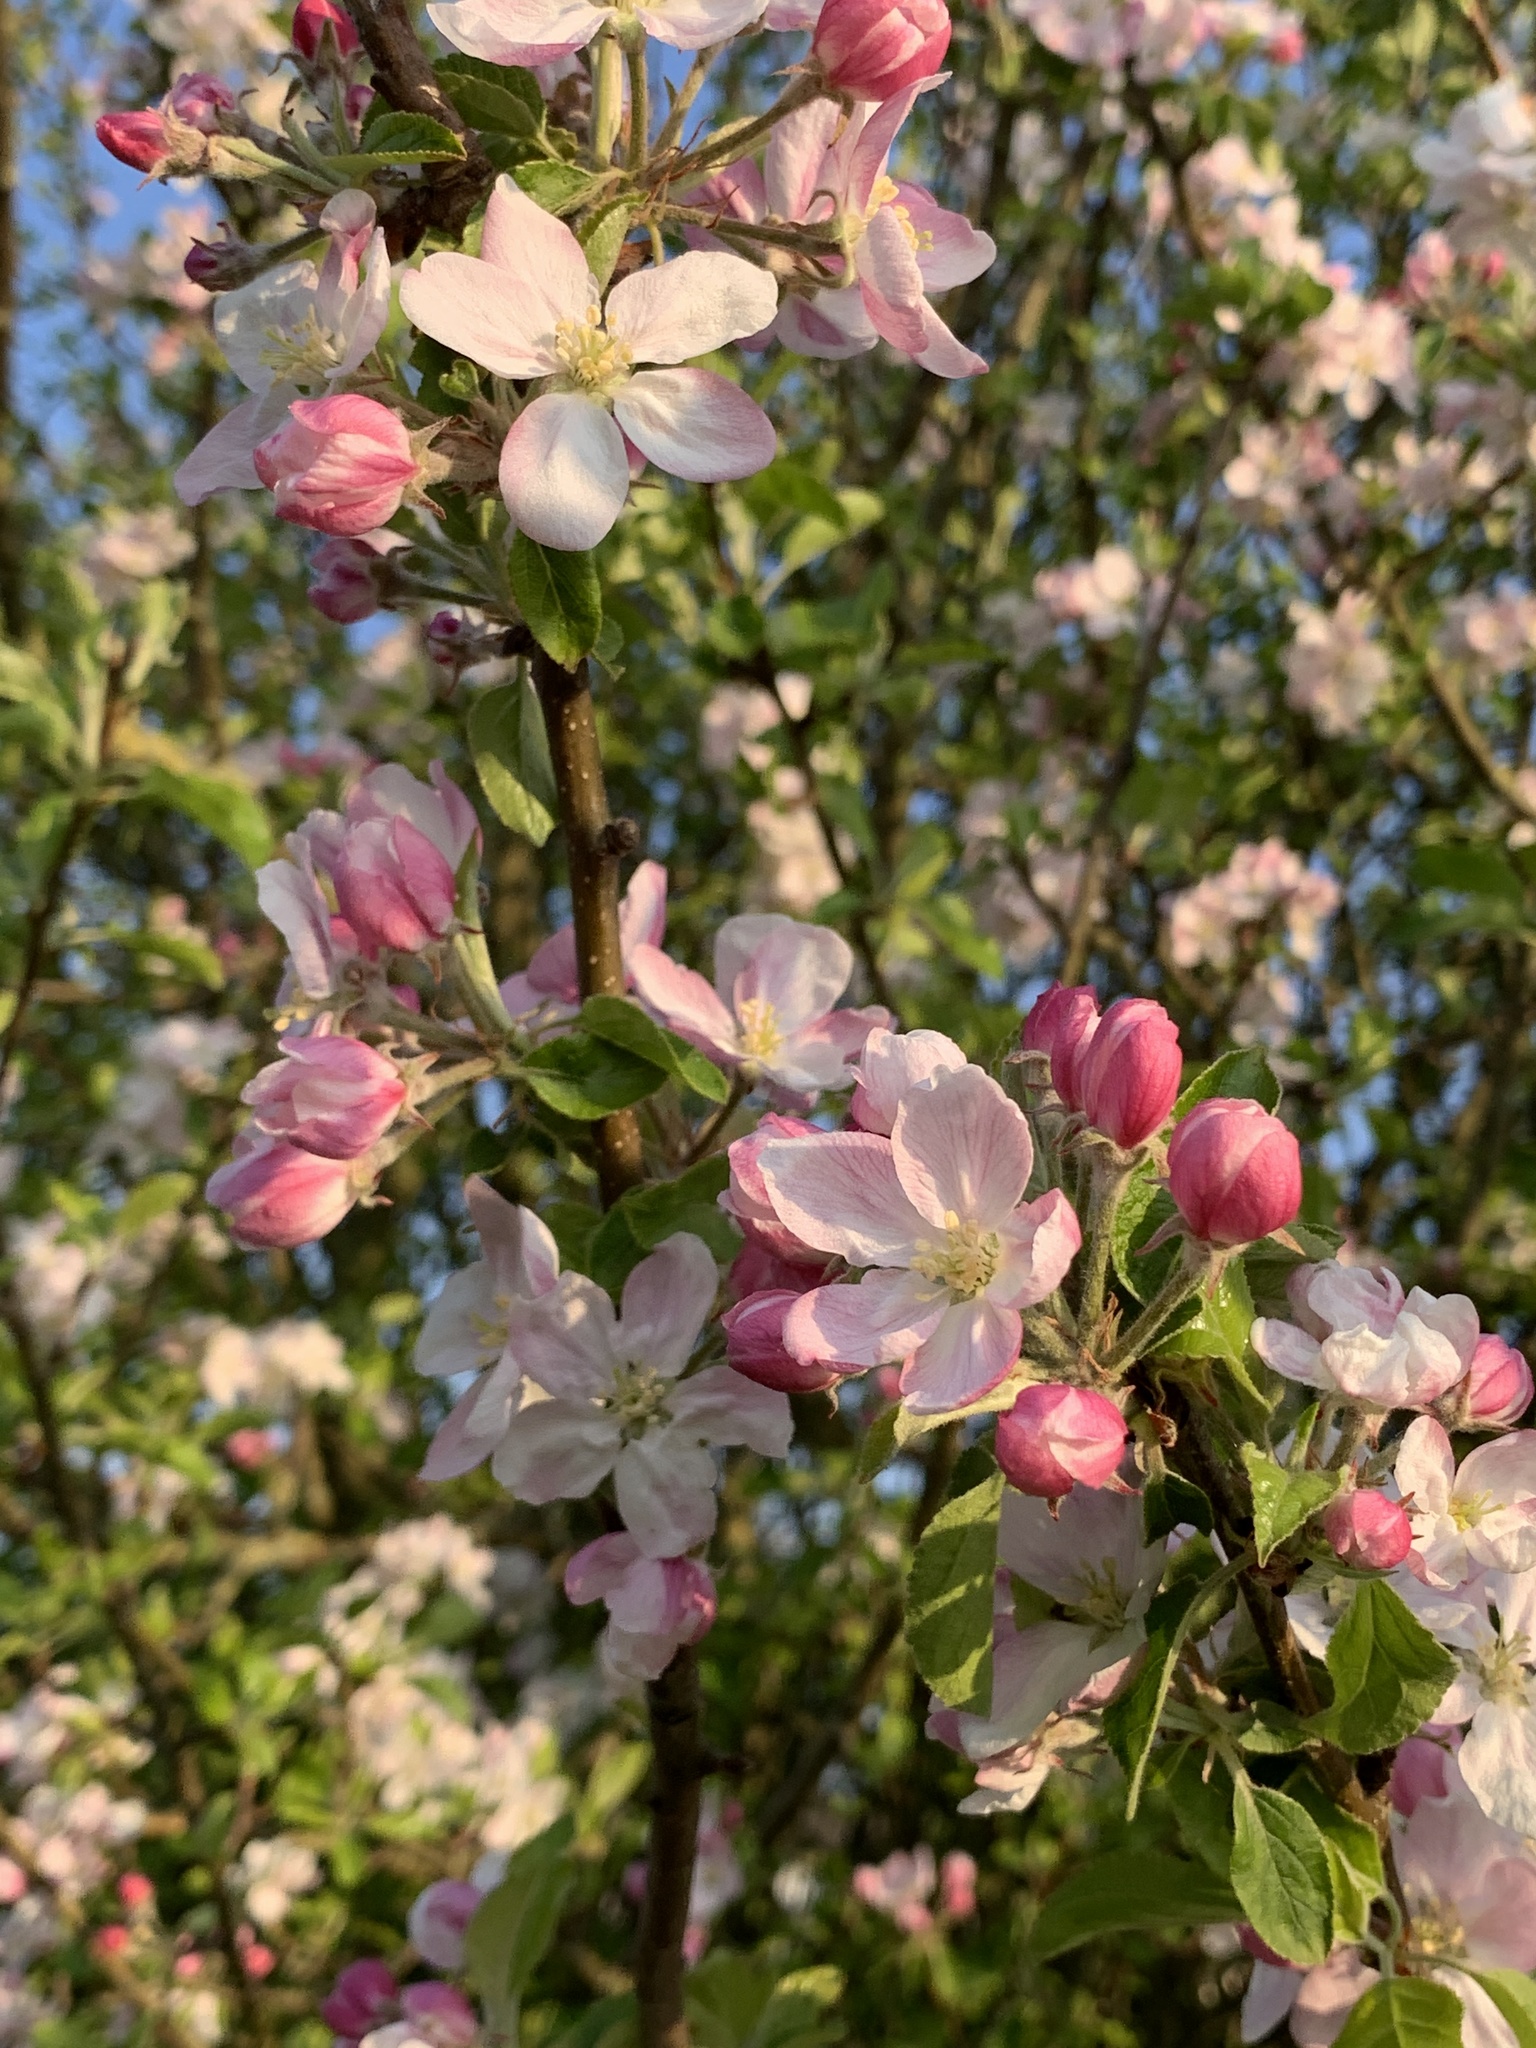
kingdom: Plantae
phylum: Tracheophyta
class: Magnoliopsida
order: Rosales
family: Rosaceae
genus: Malus
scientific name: Malus domestica
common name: Apple
